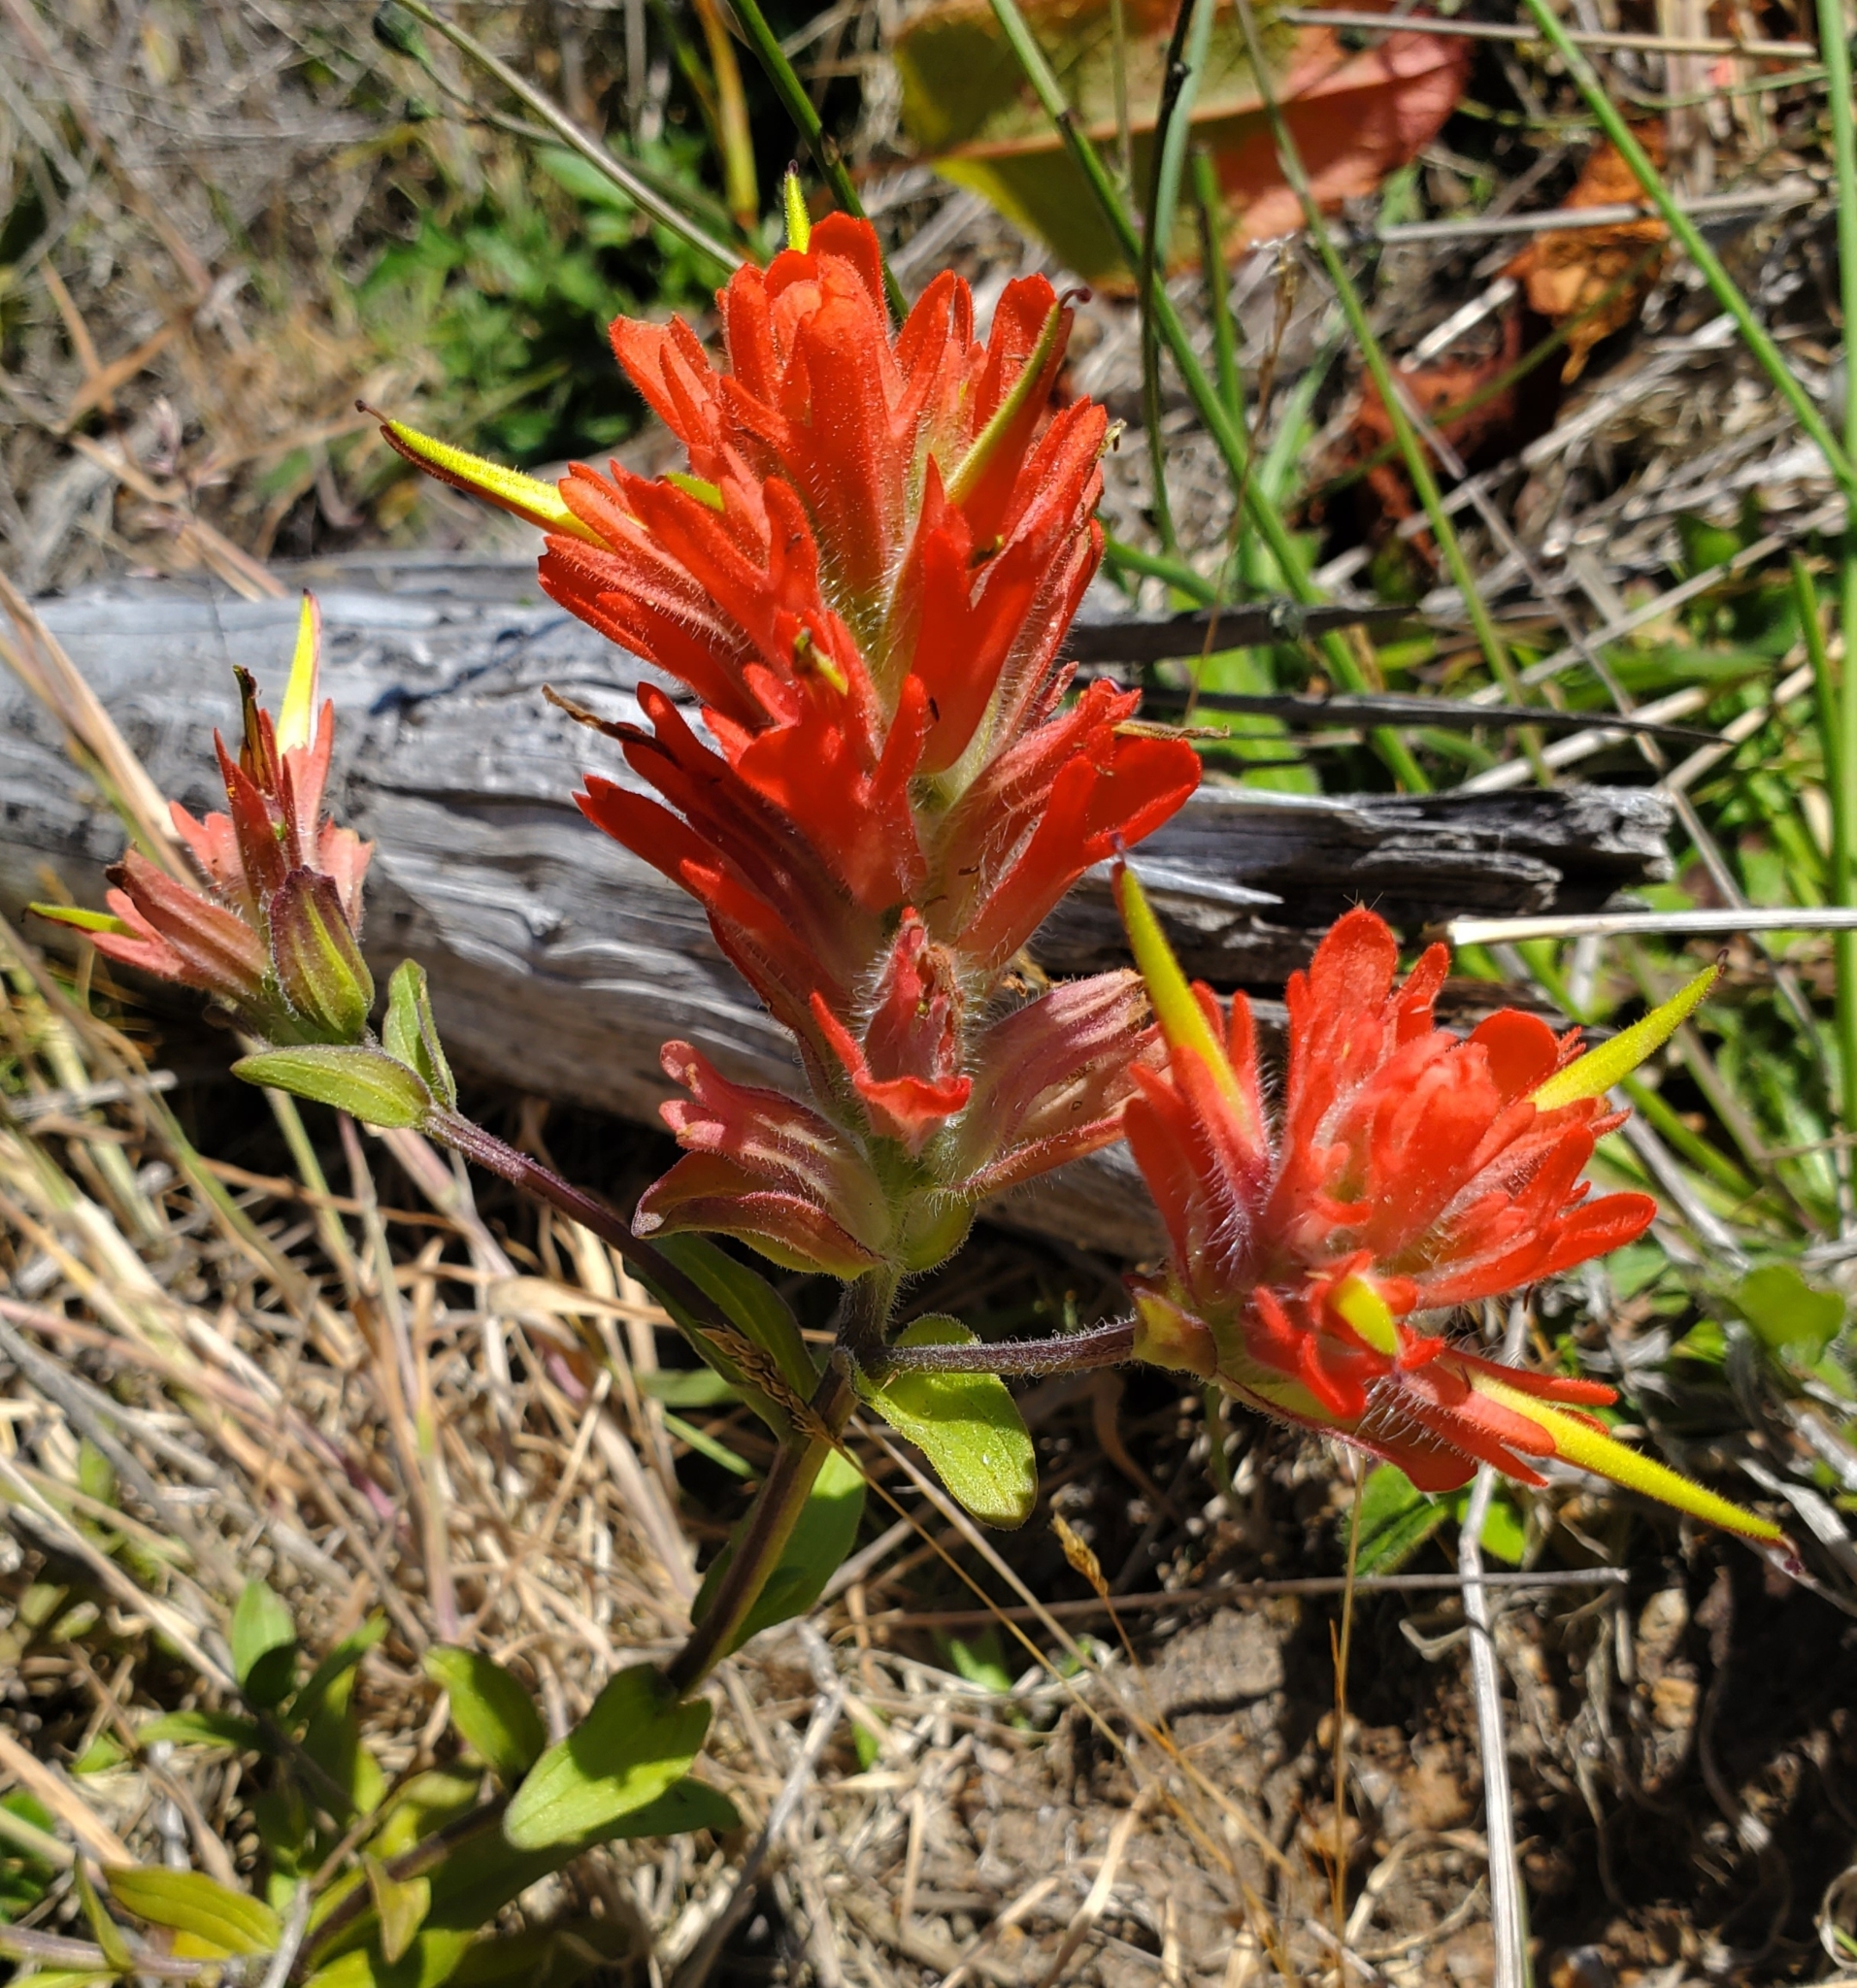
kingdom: Plantae
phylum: Tracheophyta
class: Magnoliopsida
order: Lamiales
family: Orobanchaceae
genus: Castilleja
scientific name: Castilleja litoralis
